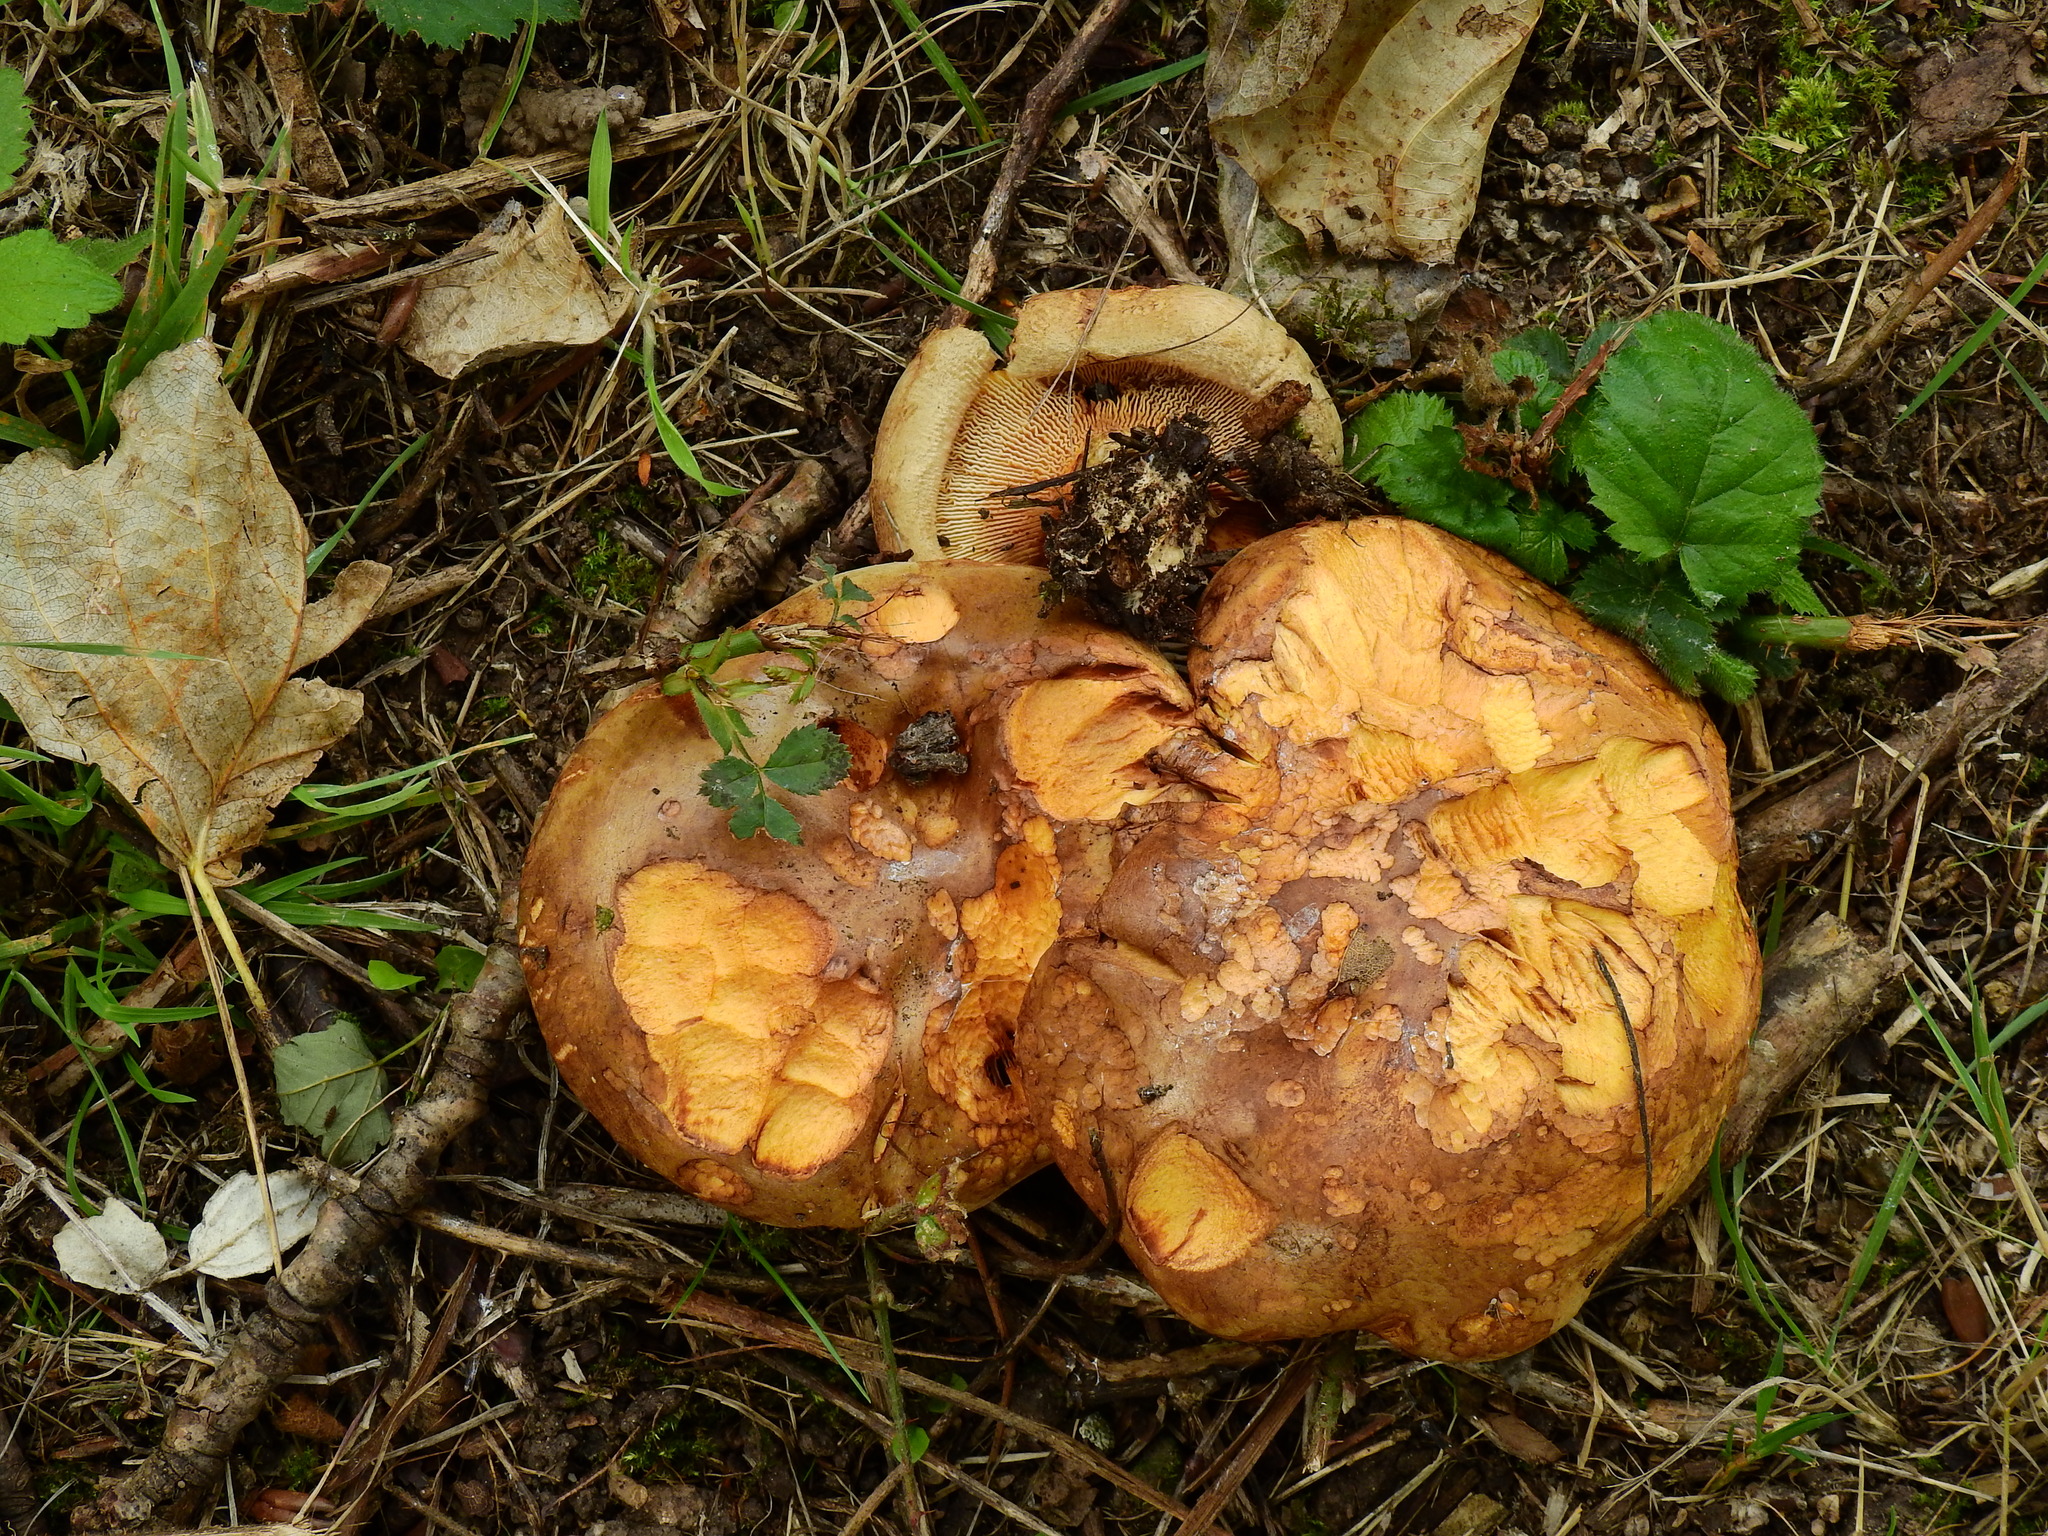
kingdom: Fungi
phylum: Basidiomycota
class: Agaricomycetes
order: Boletales
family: Paxillaceae
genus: Paxillus
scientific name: Paxillus involutus
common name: Brown roll rim
